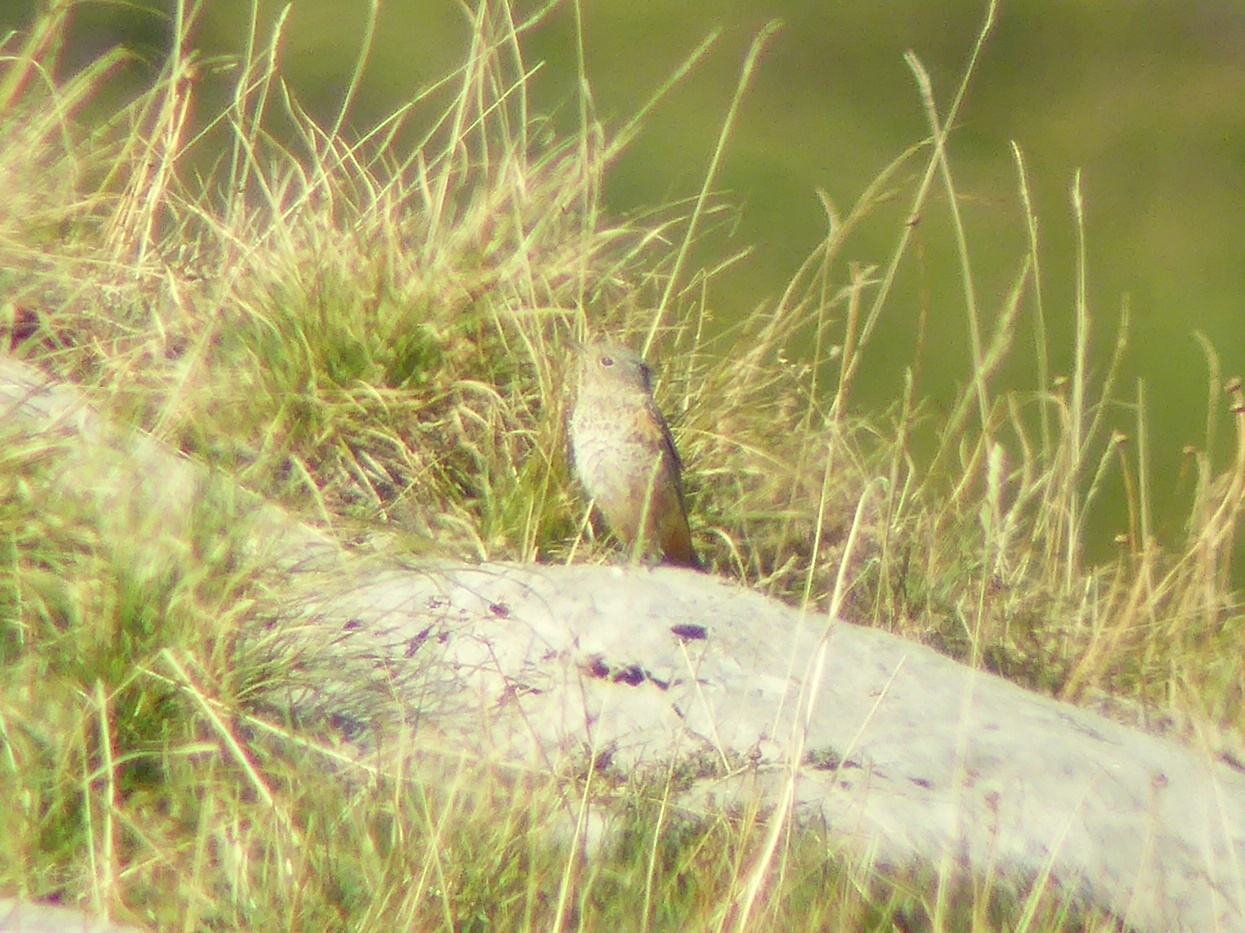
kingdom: Animalia
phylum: Chordata
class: Aves
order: Passeriformes
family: Muscicapidae
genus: Monticola
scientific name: Monticola saxatilis
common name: Rufous-tailed rock thrush
